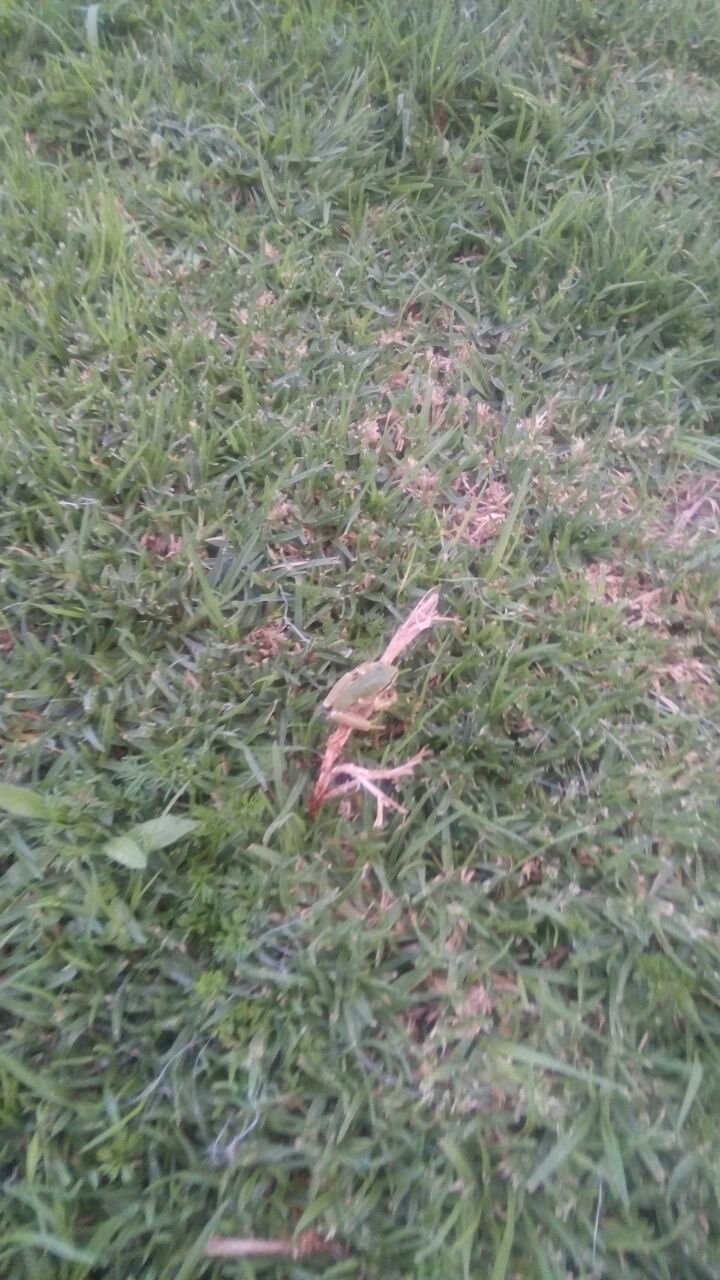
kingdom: Animalia
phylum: Chordata
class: Amphibia
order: Anura
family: Hylidae
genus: Dryophytes
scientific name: Dryophytes eximius
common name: Mountain treefrog
